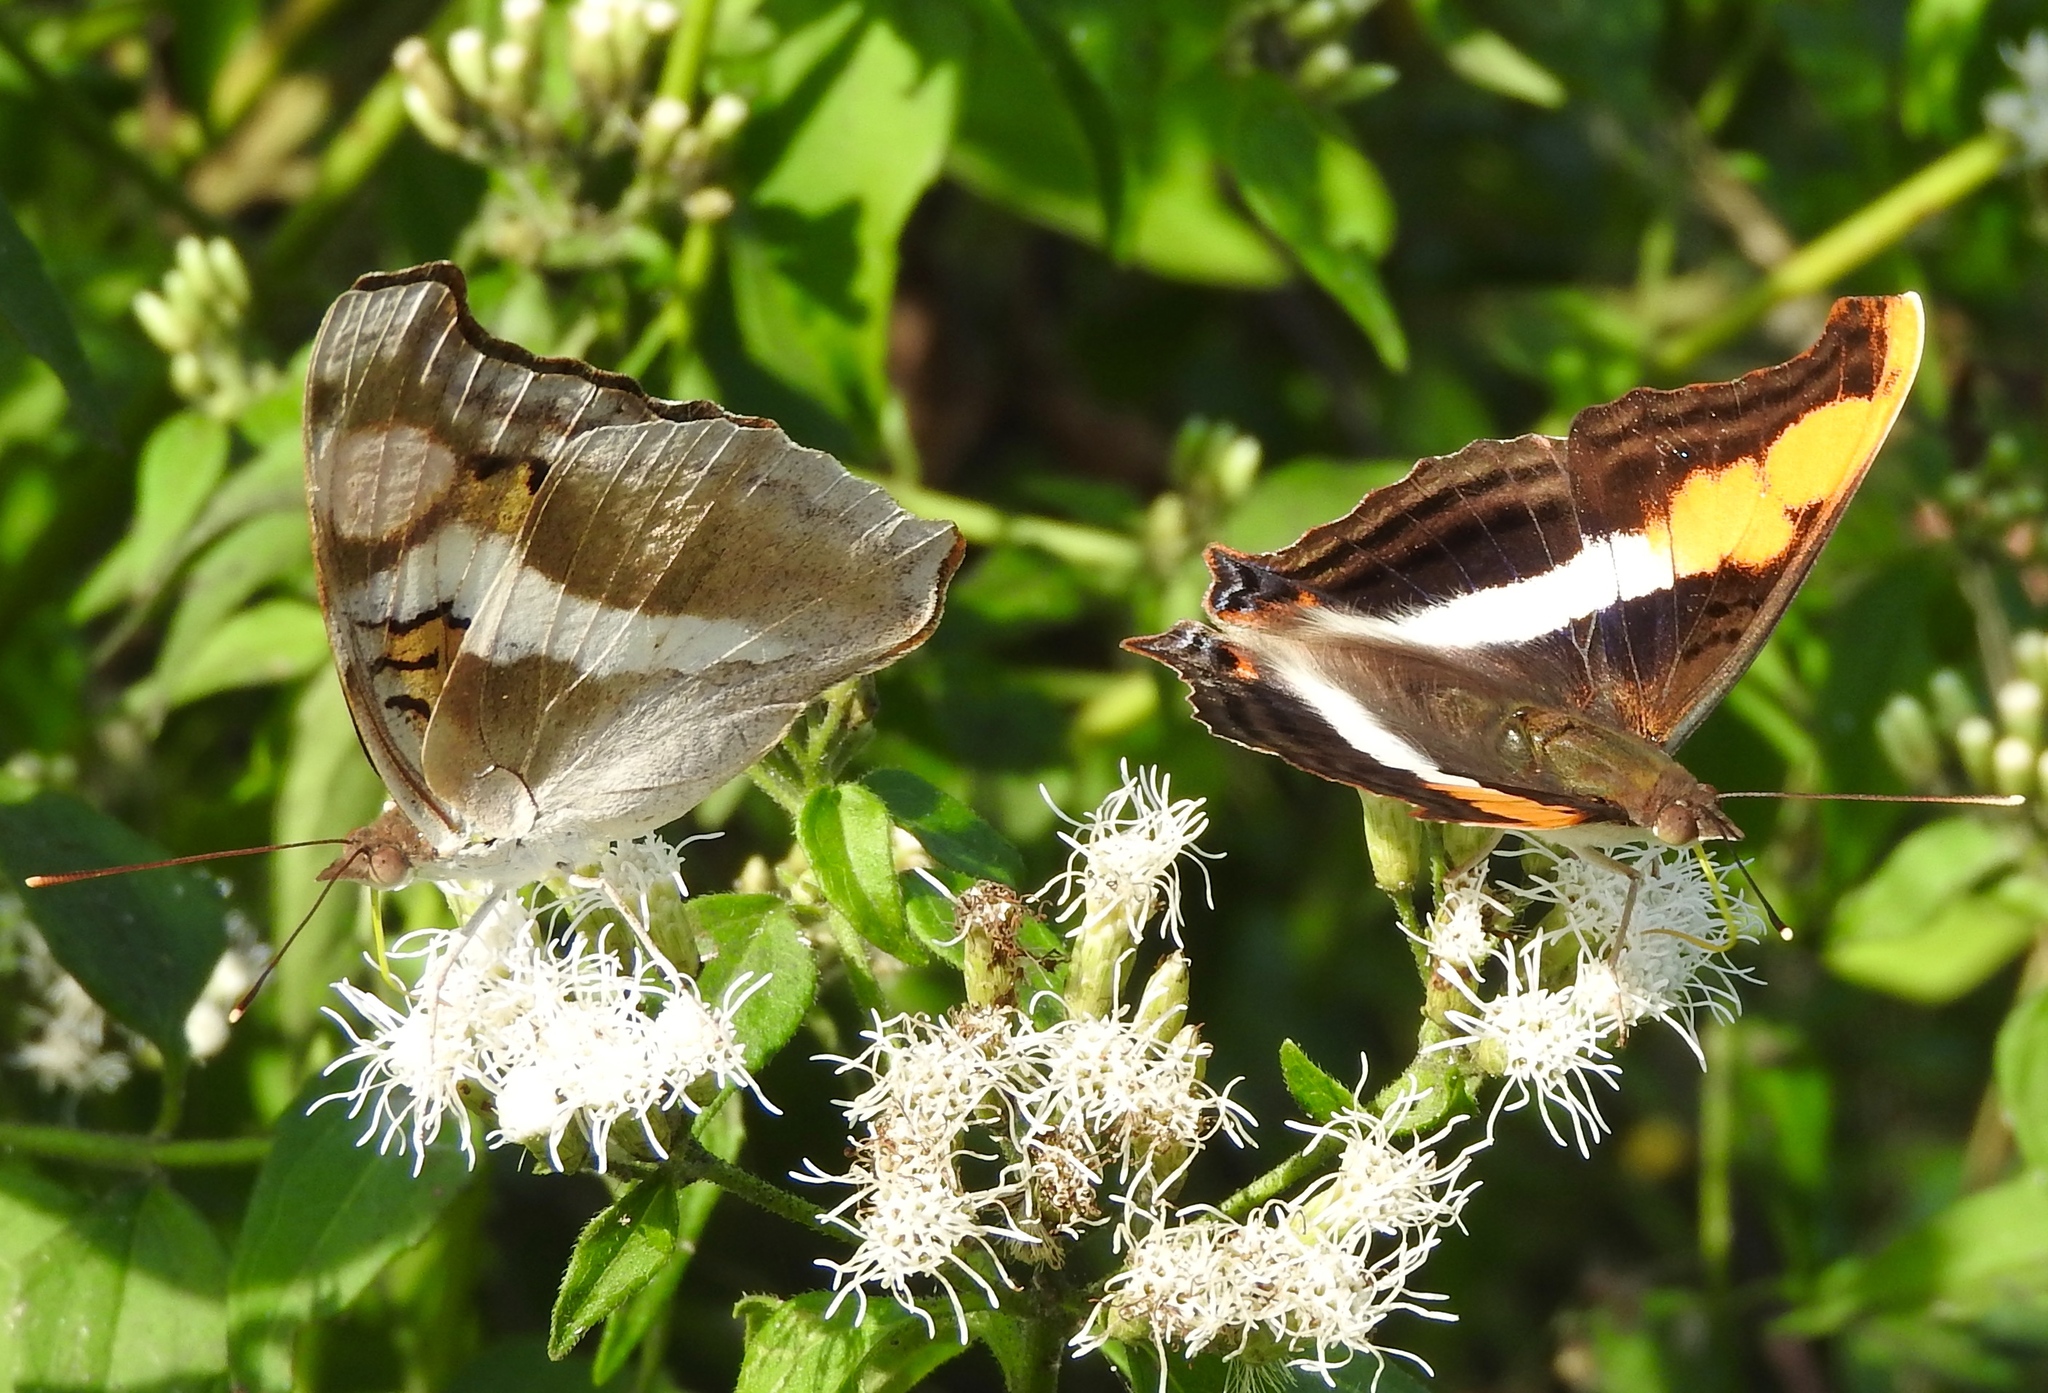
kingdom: Animalia
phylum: Arthropoda
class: Insecta
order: Lepidoptera
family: Nymphalidae
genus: Doxocopa
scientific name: Doxocopa laure
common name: Silver emperor
